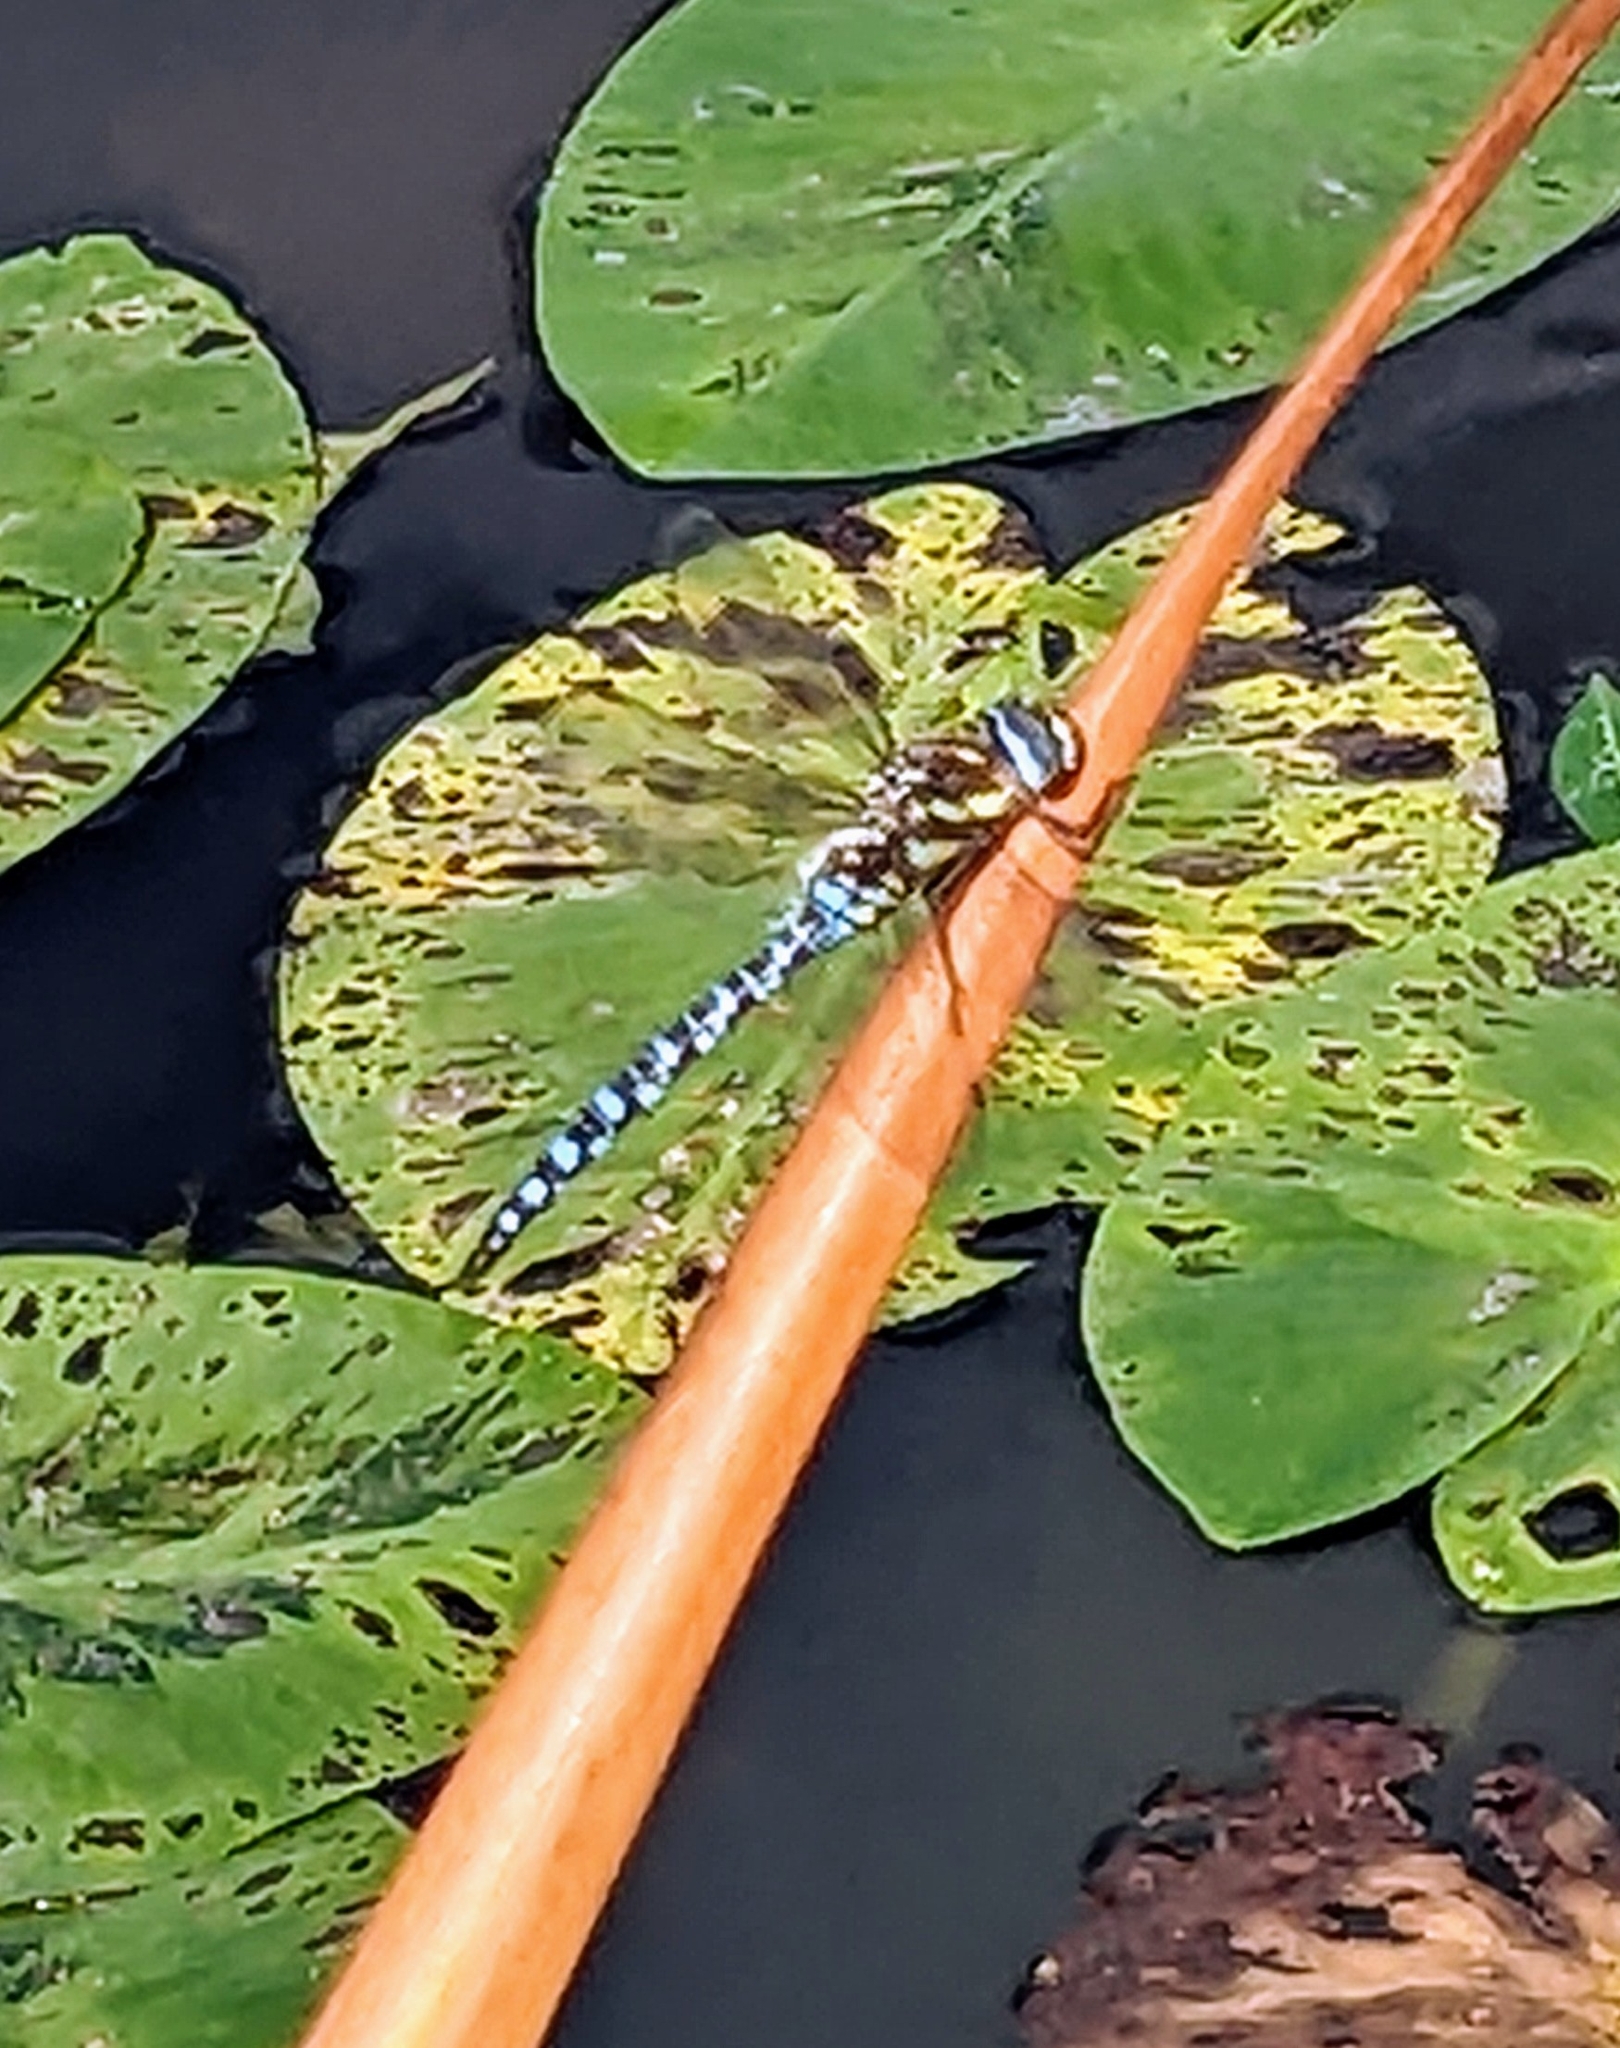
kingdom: Animalia
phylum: Arthropoda
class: Insecta
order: Odonata
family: Aeshnidae
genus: Aeshna
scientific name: Aeshna mixta
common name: Migrant hawker
